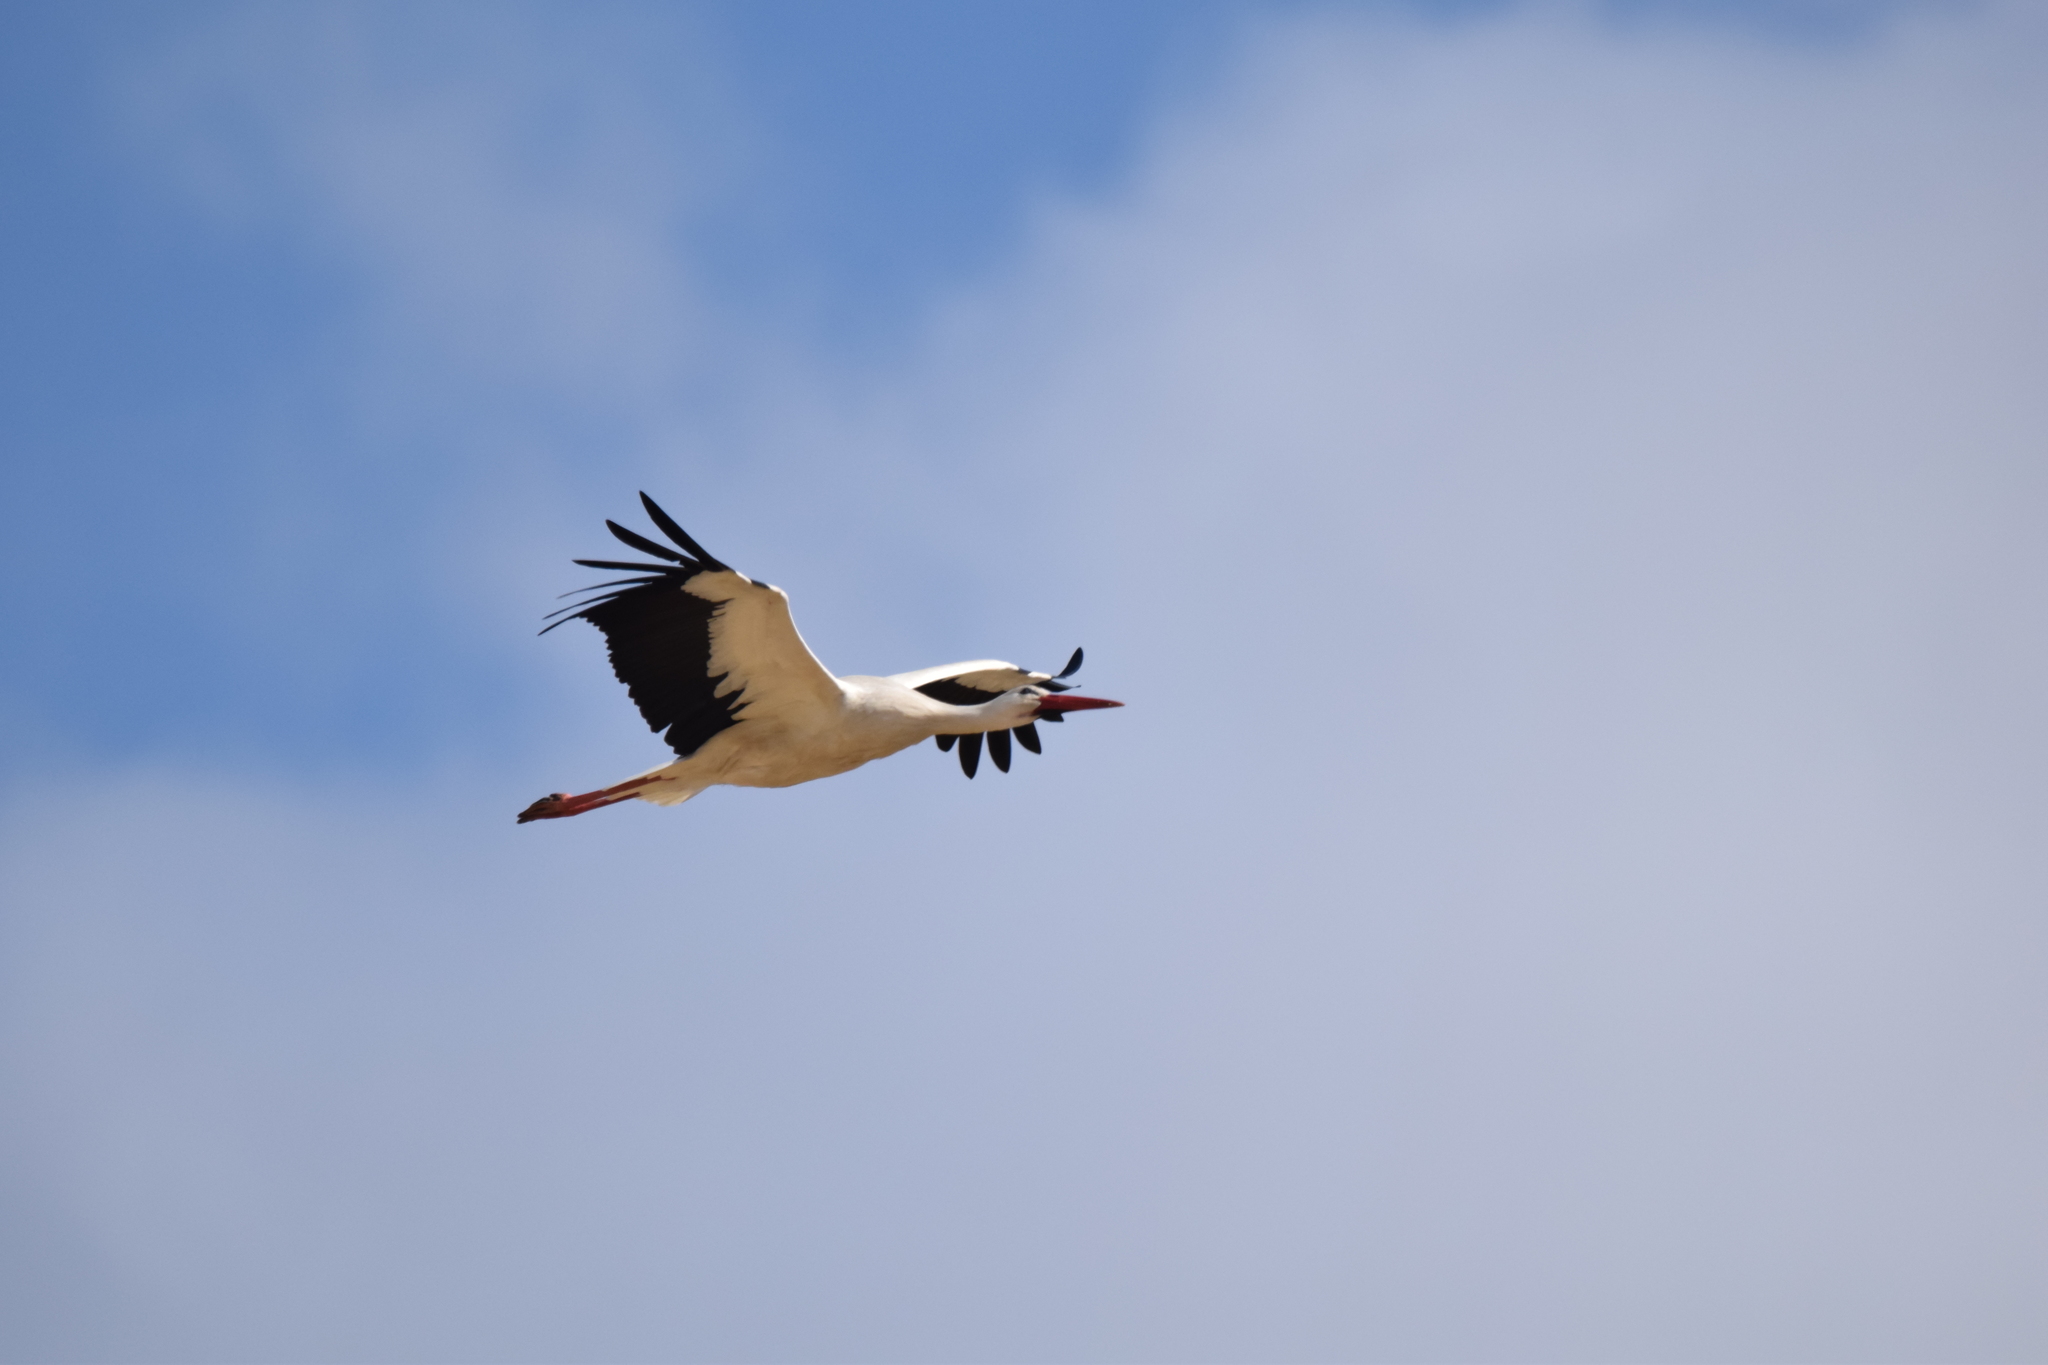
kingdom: Animalia
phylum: Chordata
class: Aves
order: Ciconiiformes
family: Ciconiidae
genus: Ciconia
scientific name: Ciconia ciconia
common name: White stork
